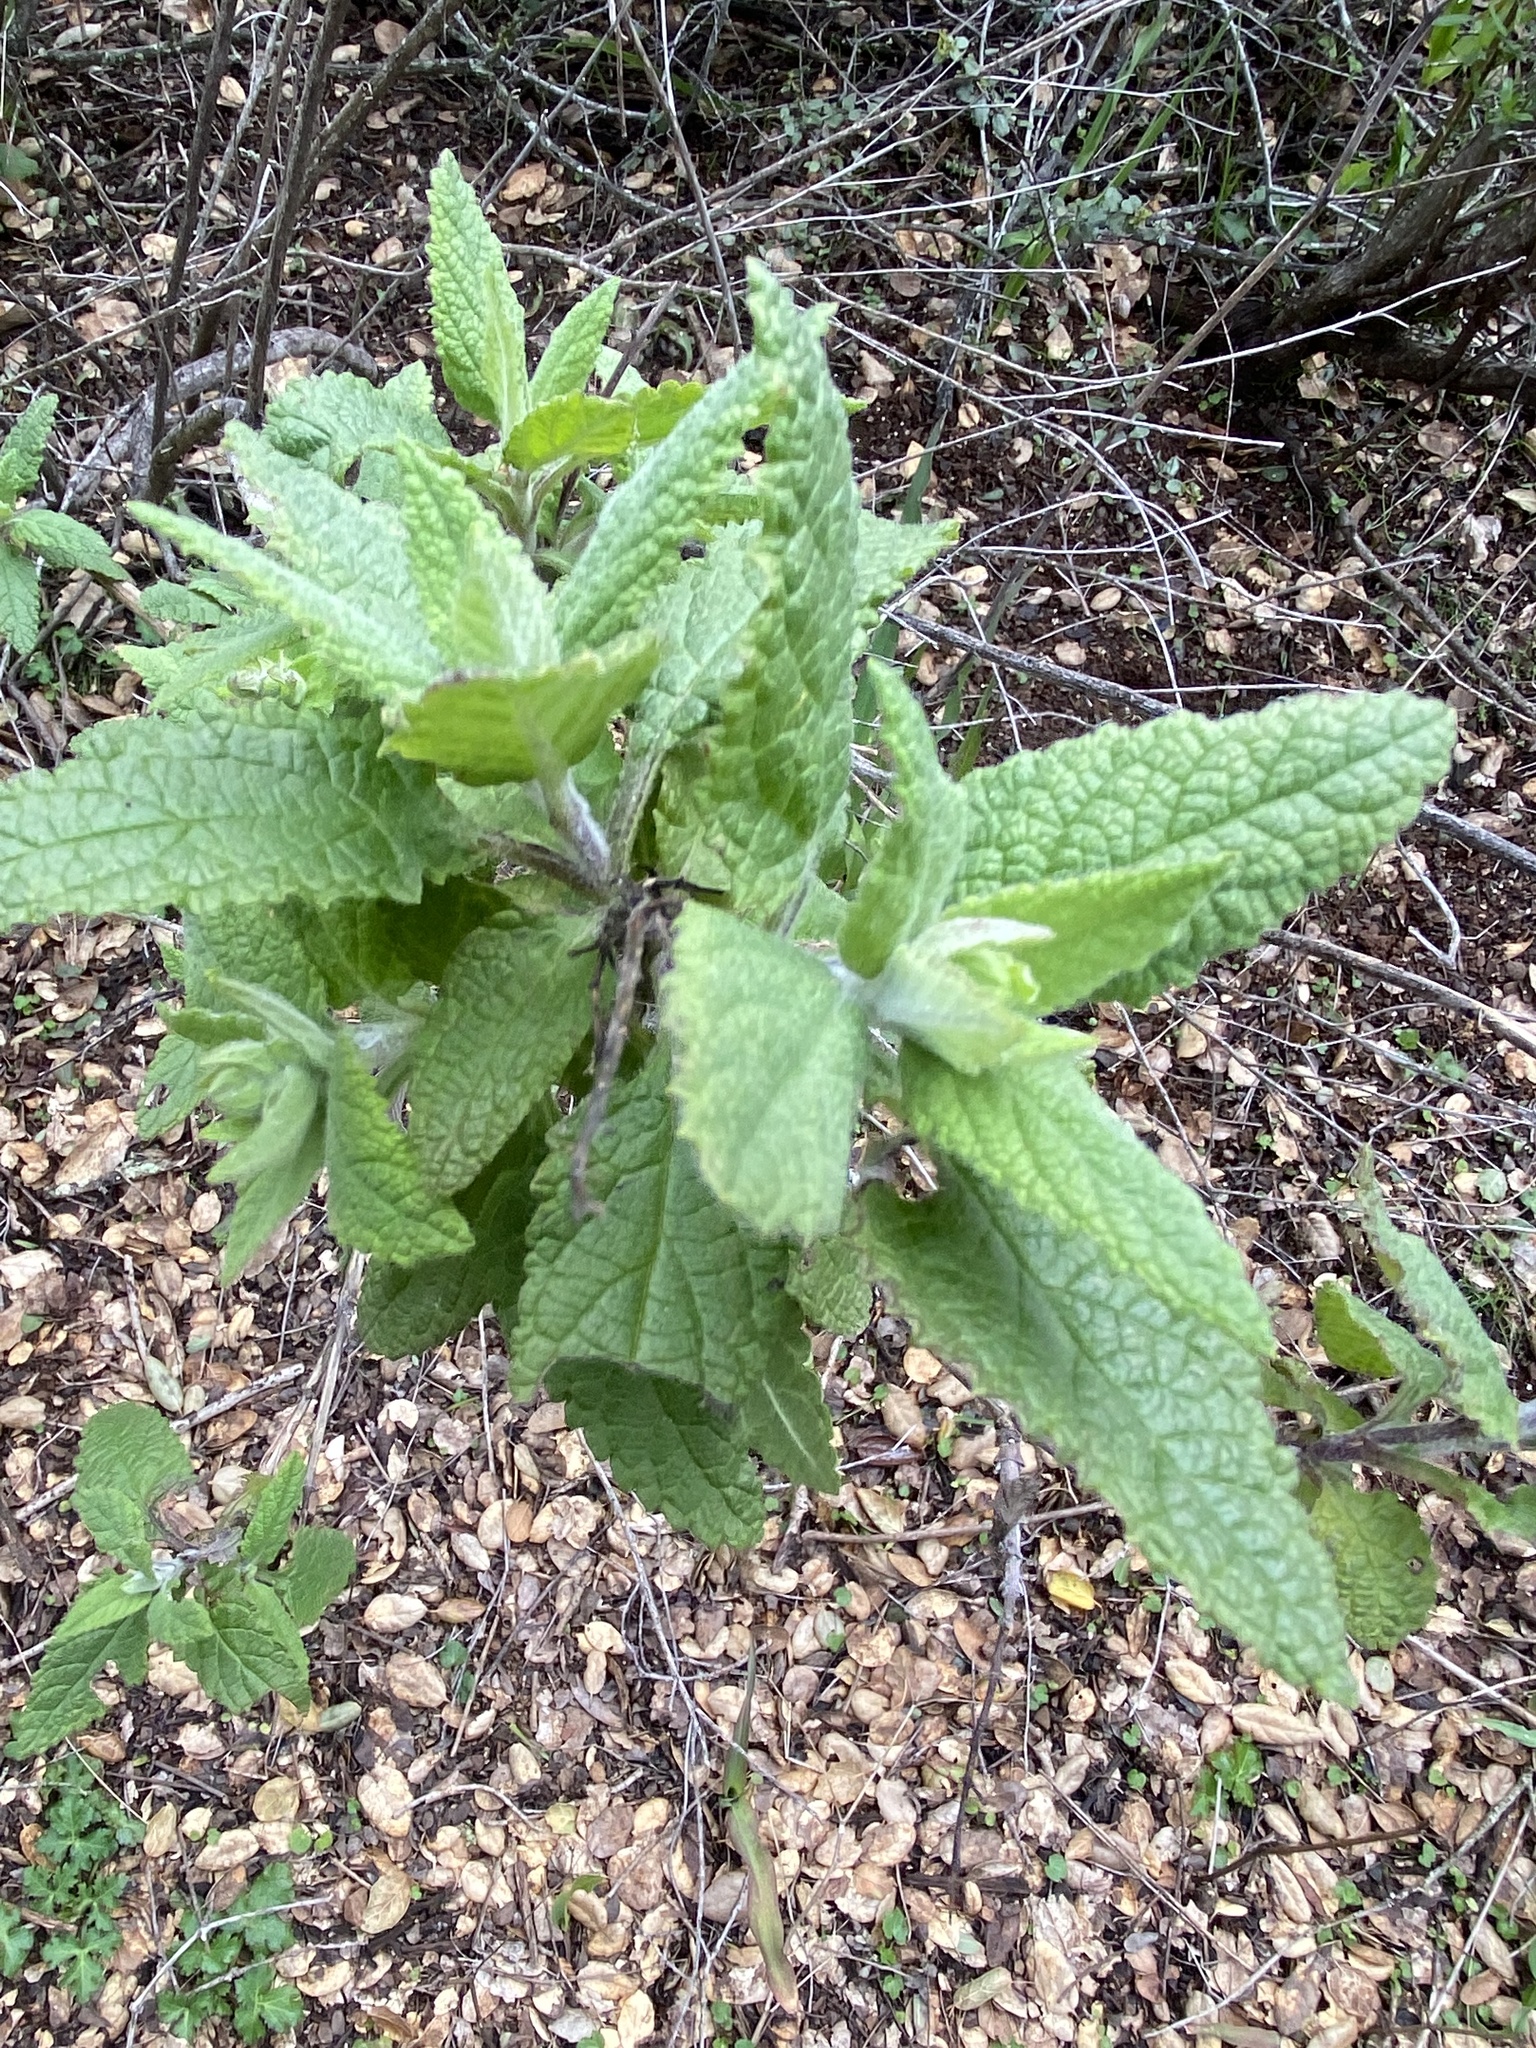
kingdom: Plantae
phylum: Tracheophyta
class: Magnoliopsida
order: Lamiales
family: Lamiaceae
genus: Lepechinia
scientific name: Lepechinia calycina
